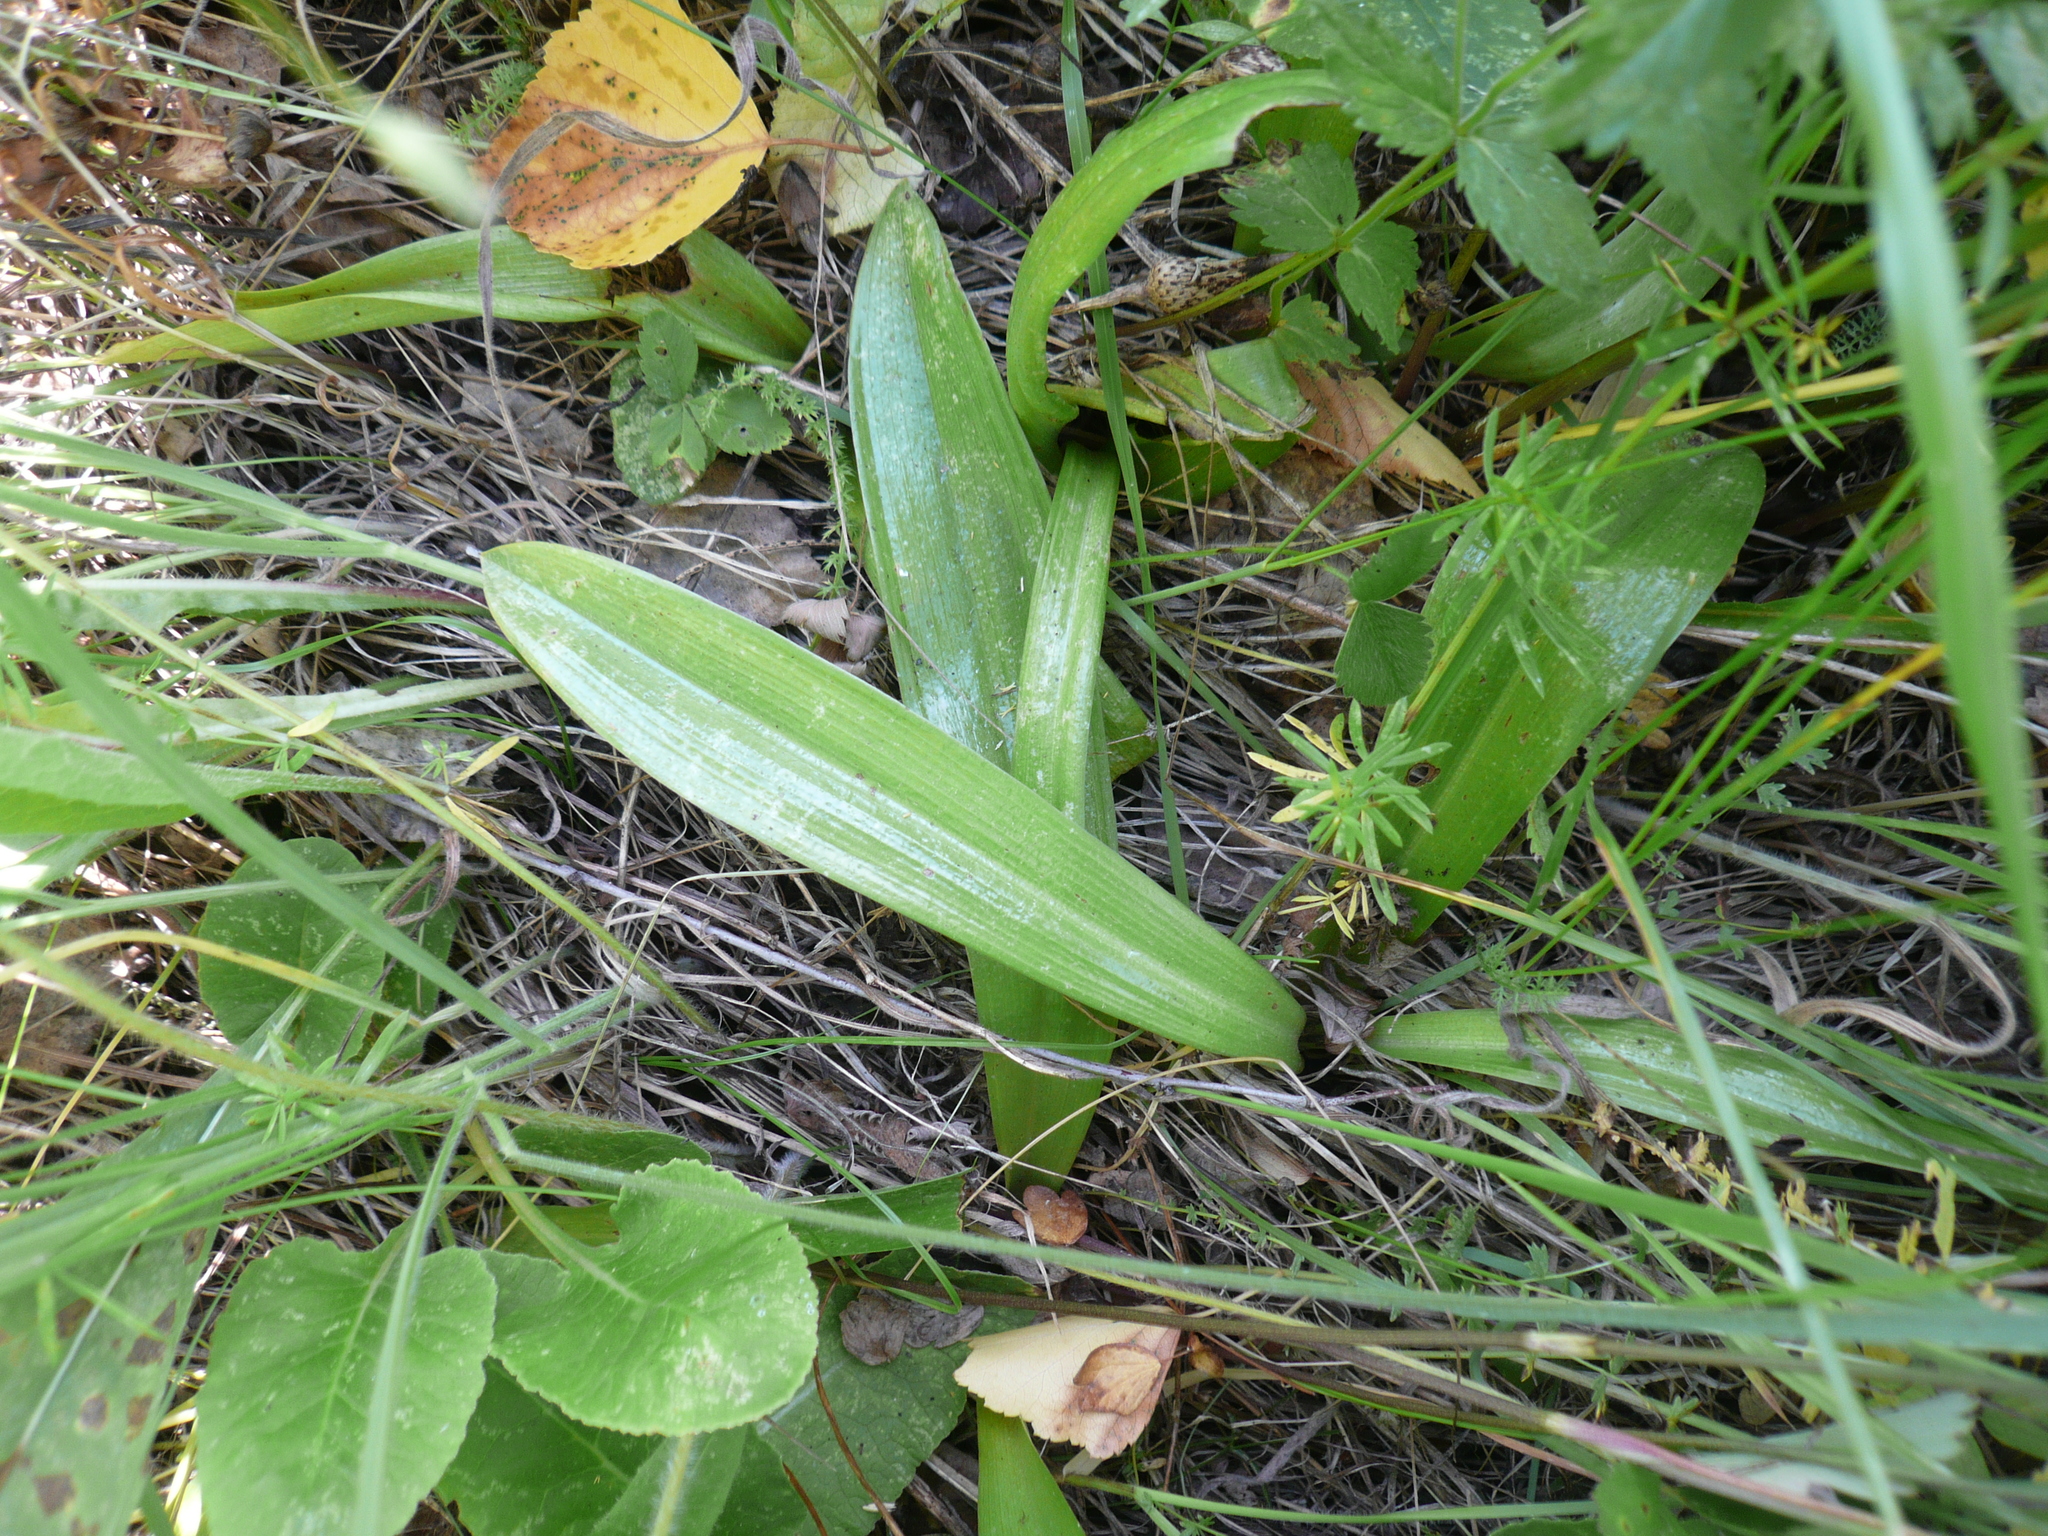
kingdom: Plantae
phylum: Tracheophyta
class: Liliopsida
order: Asparagales
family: Orchidaceae
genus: Orchis
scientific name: Orchis militaris
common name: Military orchid
